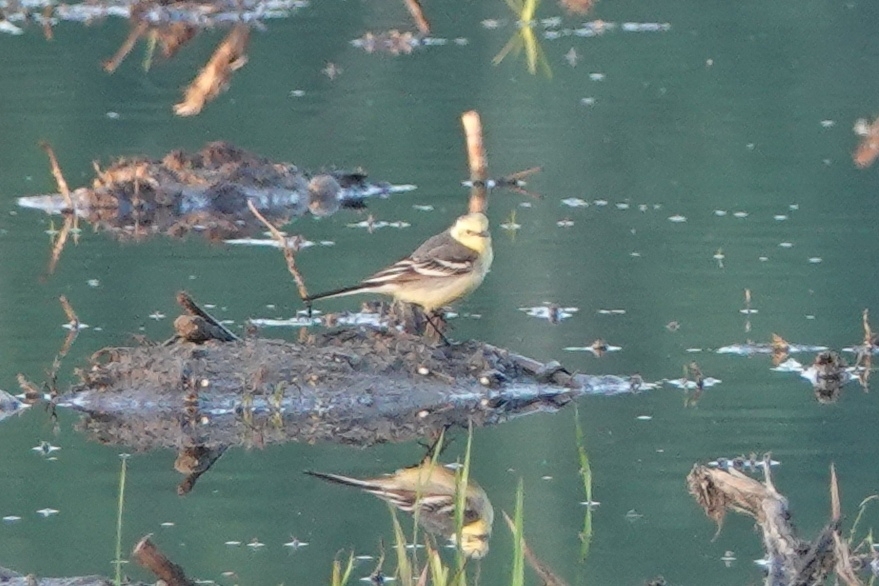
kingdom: Animalia
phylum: Chordata
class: Aves
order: Passeriformes
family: Motacillidae
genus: Motacilla
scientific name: Motacilla citreola
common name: Citrine wagtail
